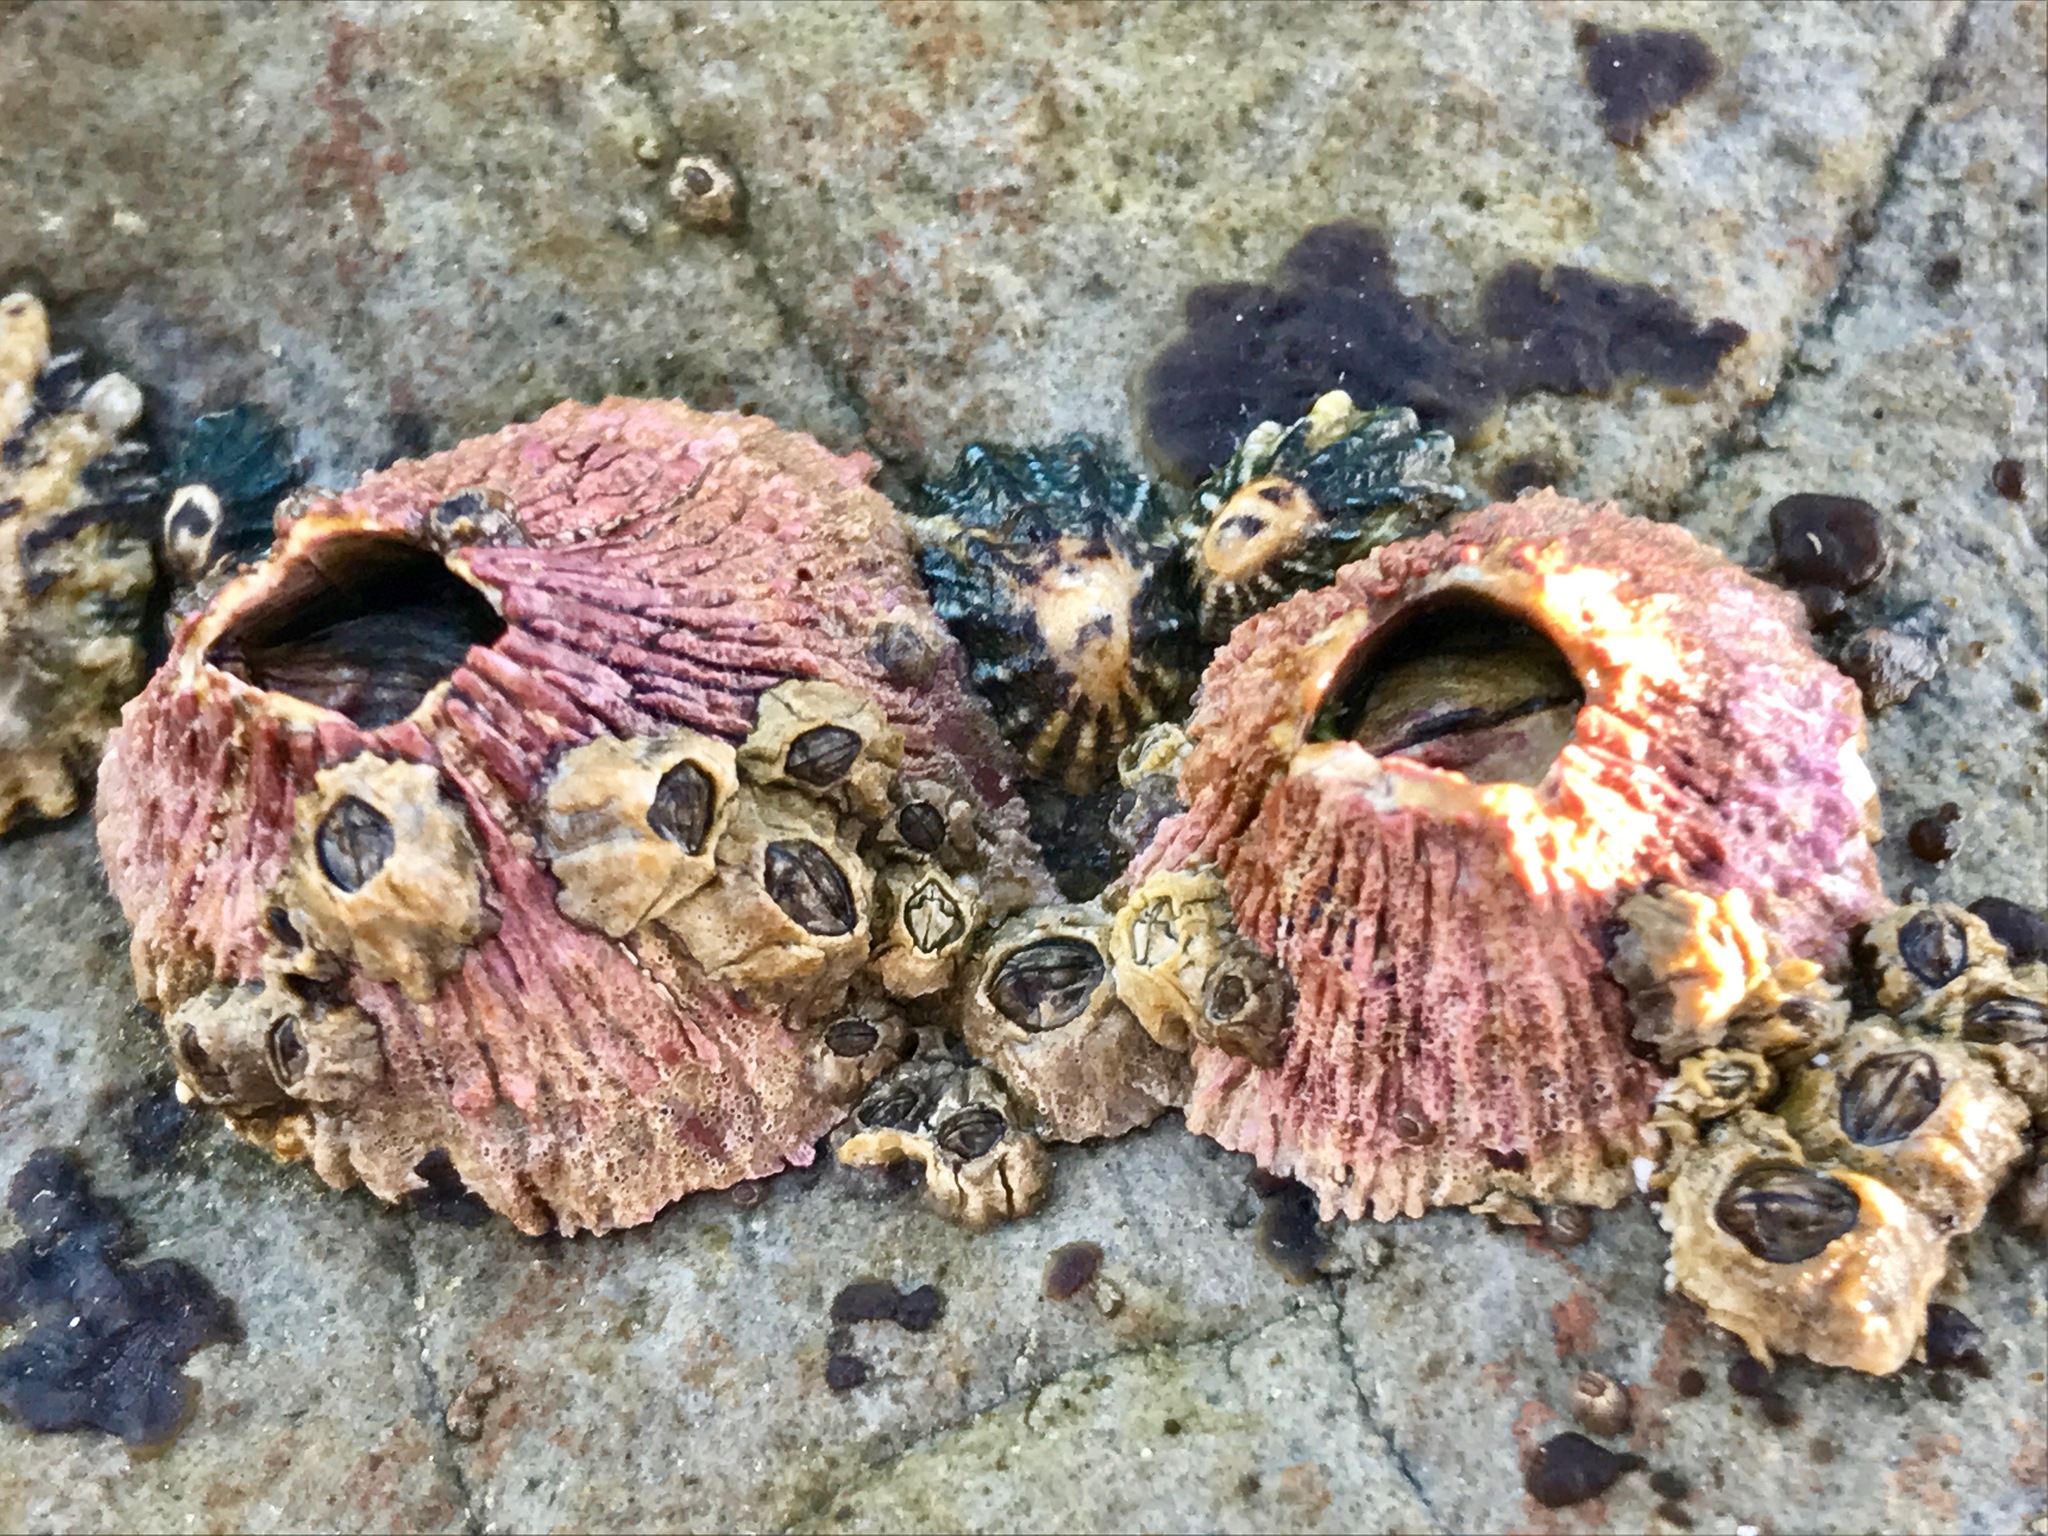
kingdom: Animalia
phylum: Arthropoda
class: Maxillopoda
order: Sessilia
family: Tetraclitidae
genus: Tetraclita
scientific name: Tetraclita rubescens
